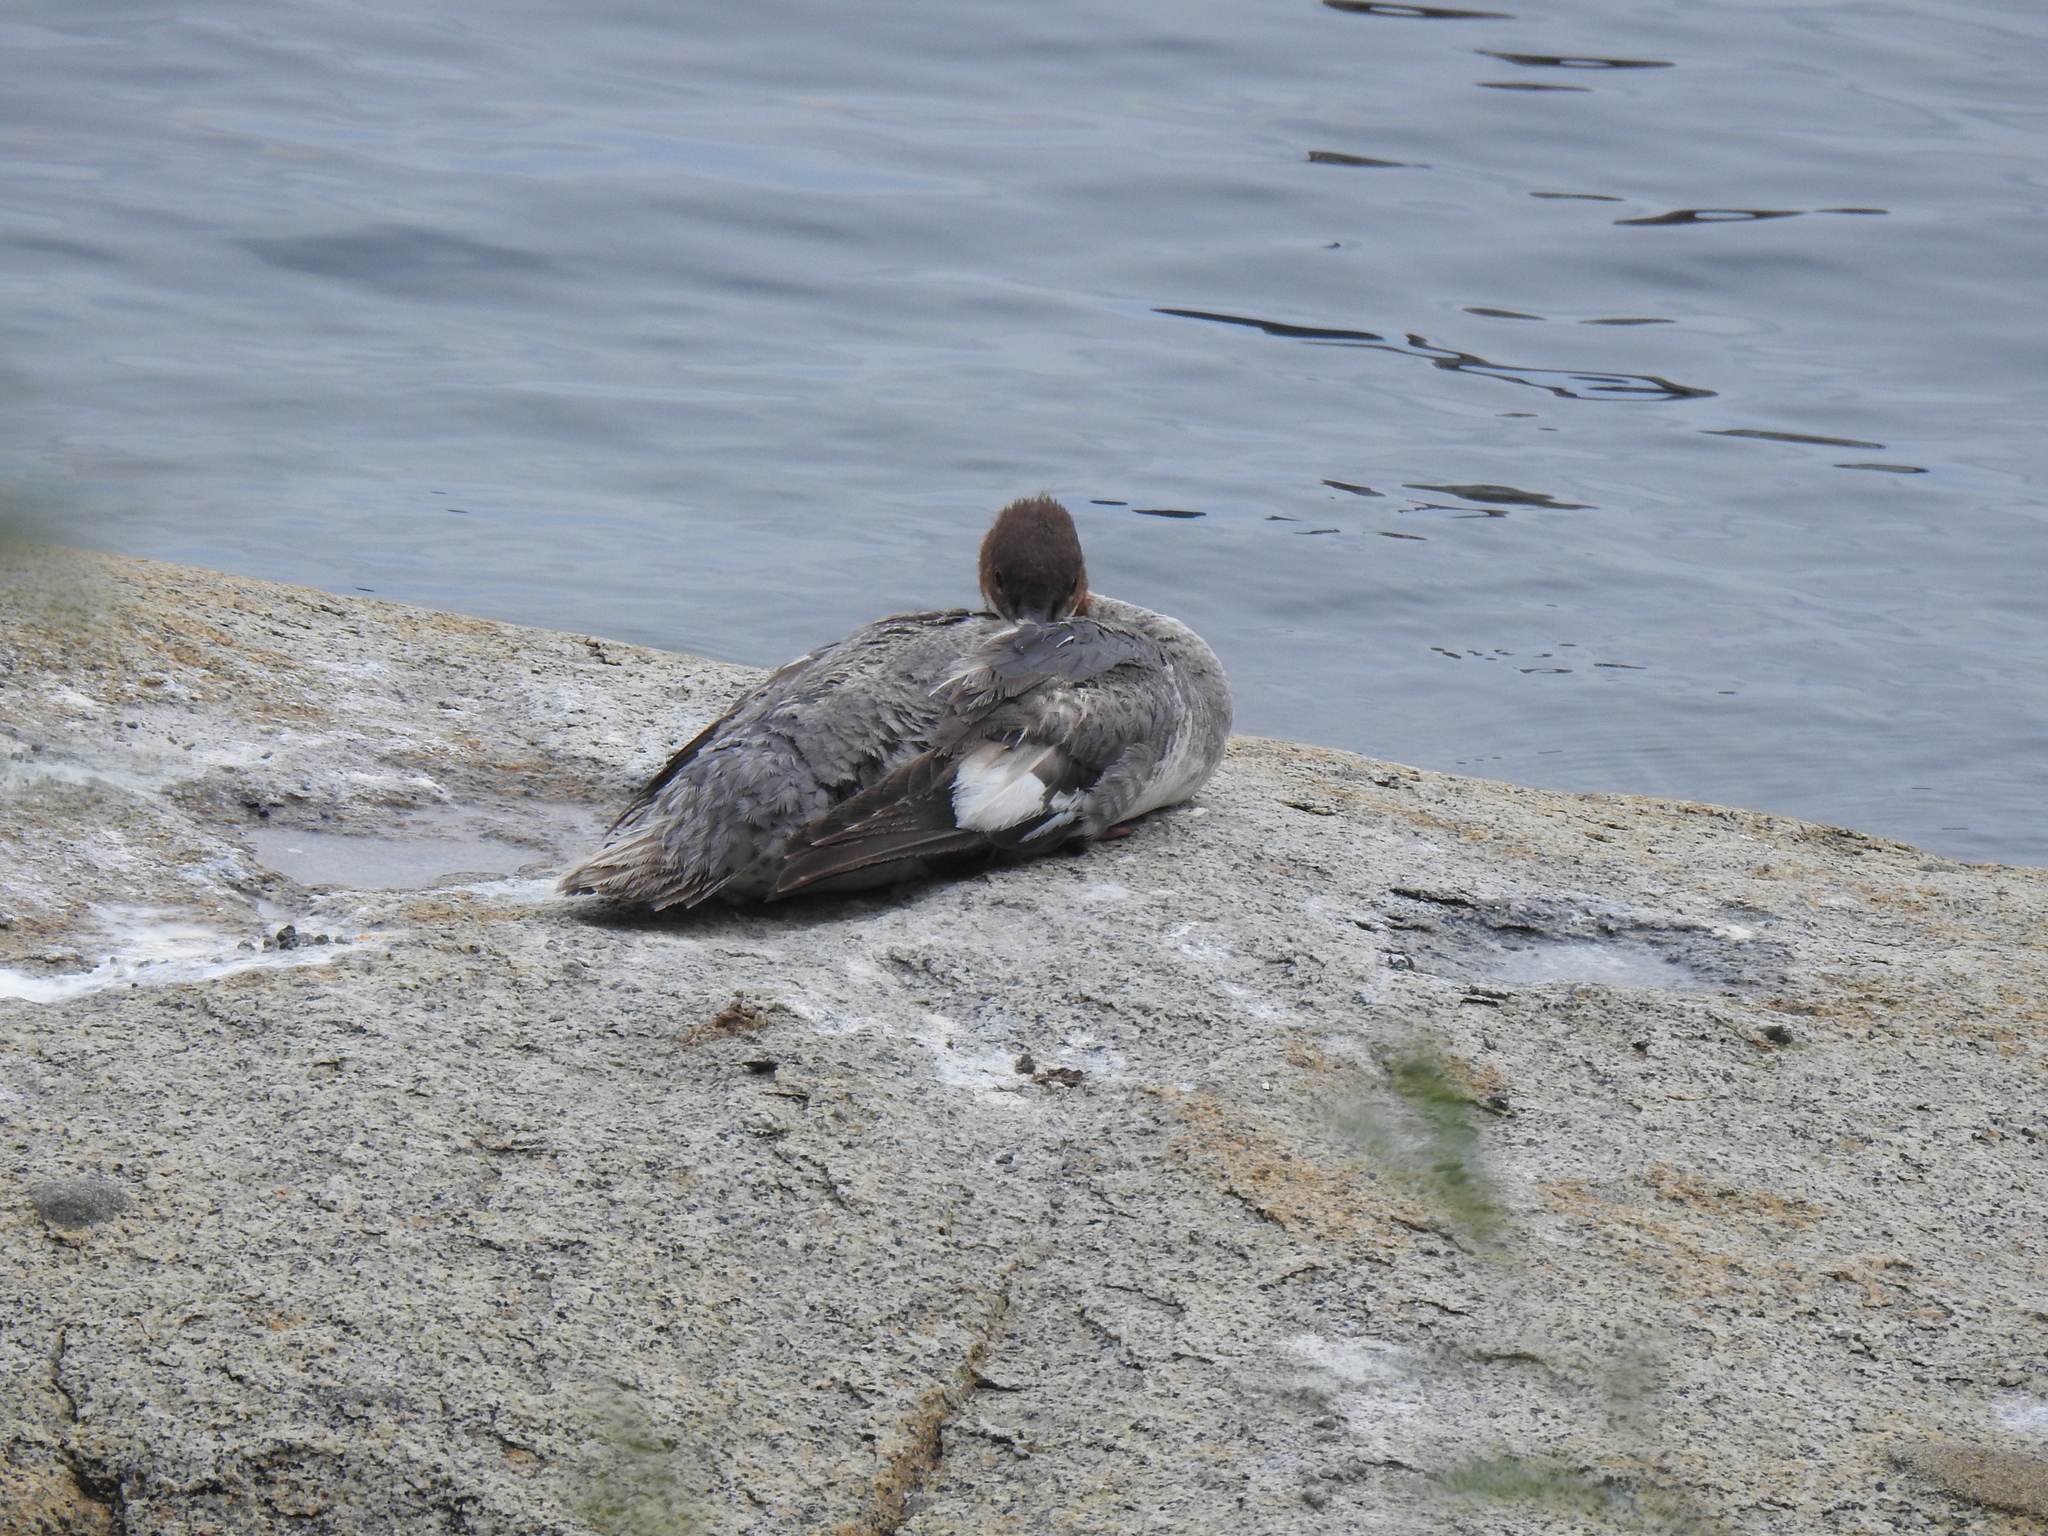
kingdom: Animalia
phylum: Chordata
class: Aves
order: Anseriformes
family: Anatidae
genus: Mergus
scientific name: Mergus merganser
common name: Common merganser
